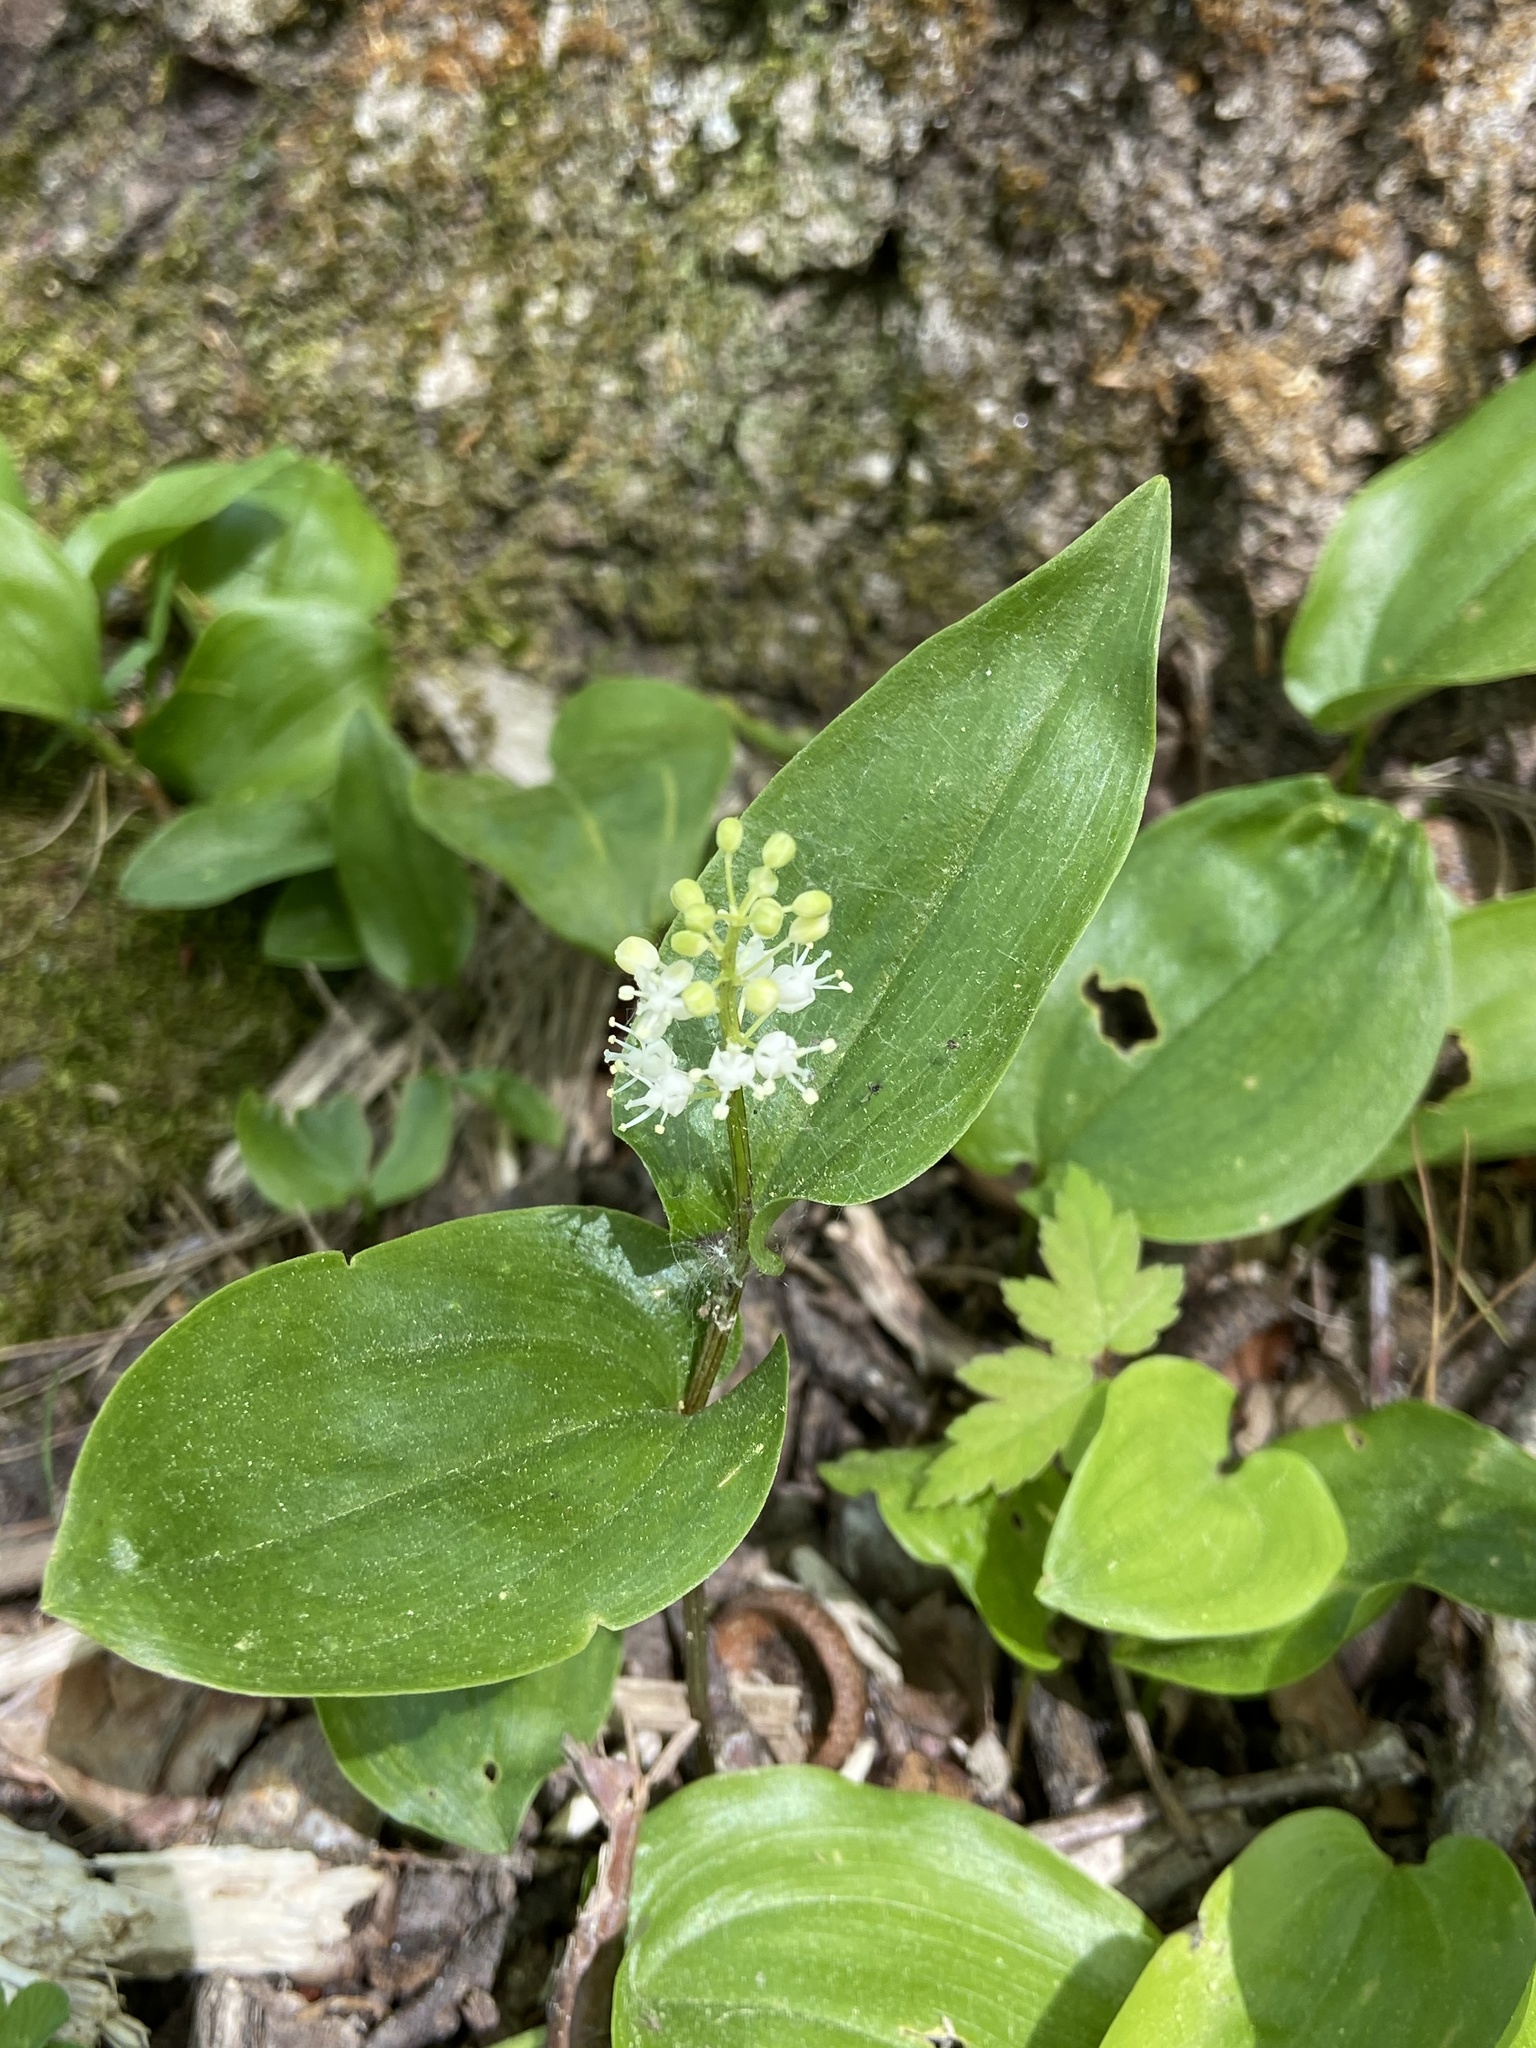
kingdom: Plantae
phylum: Tracheophyta
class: Liliopsida
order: Asparagales
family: Asparagaceae
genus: Maianthemum
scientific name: Maianthemum canadense
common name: False lily-of-the-valley
